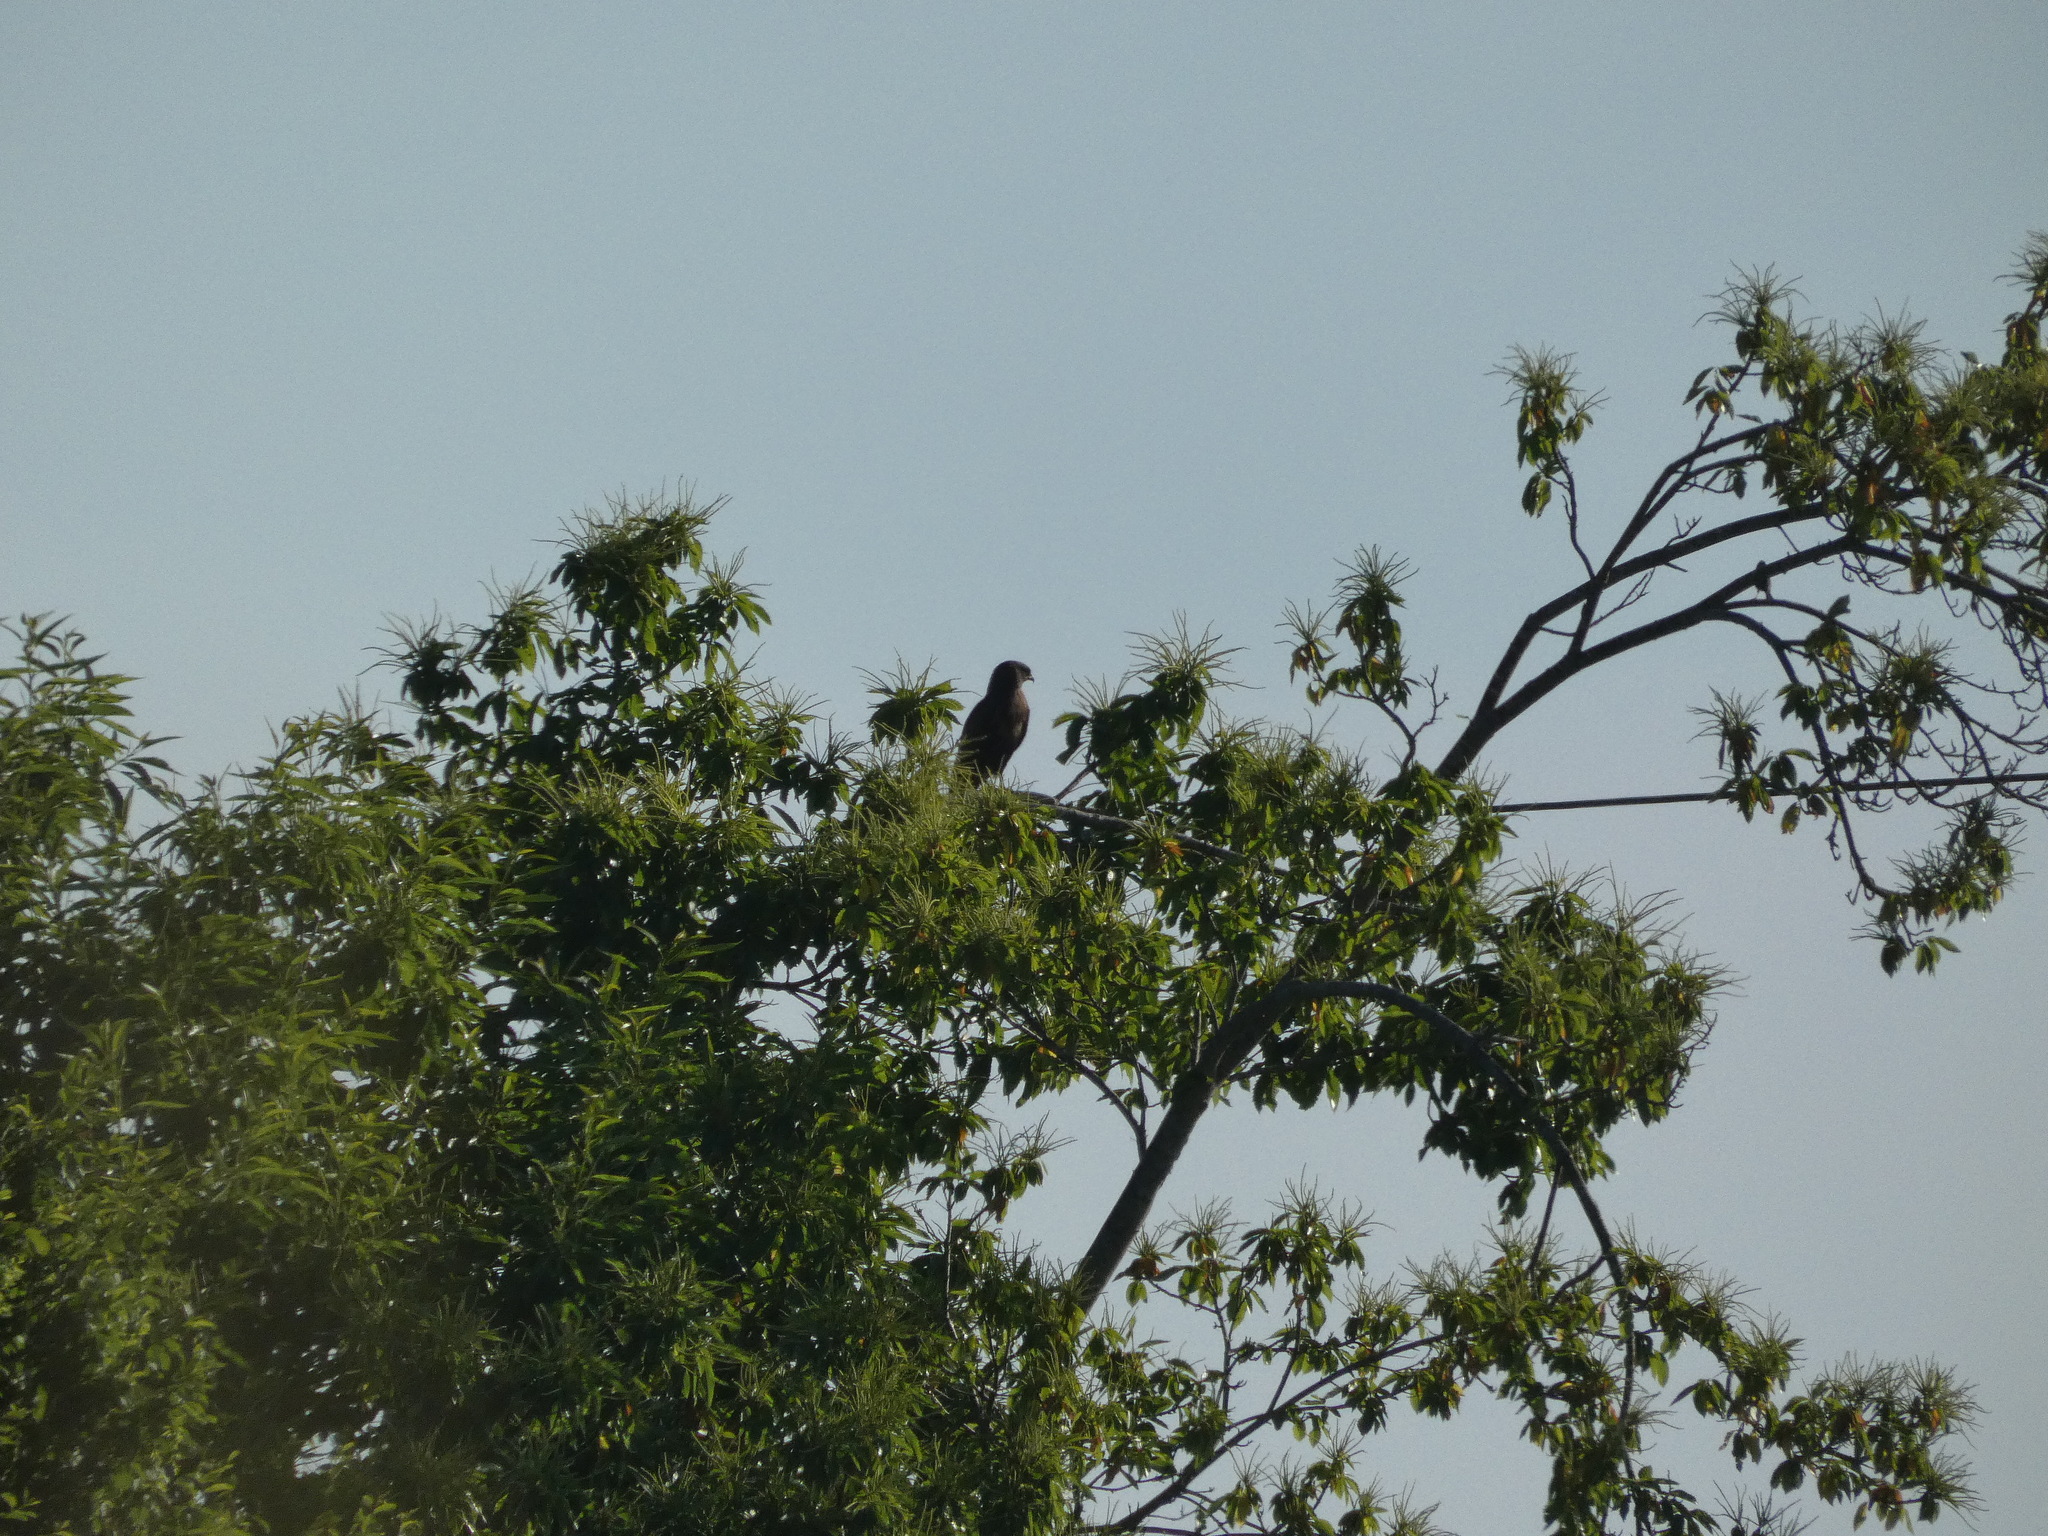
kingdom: Animalia
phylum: Chordata
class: Aves
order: Accipitriformes
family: Accipitridae
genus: Buteo
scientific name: Buteo buteo
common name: Common buzzard
